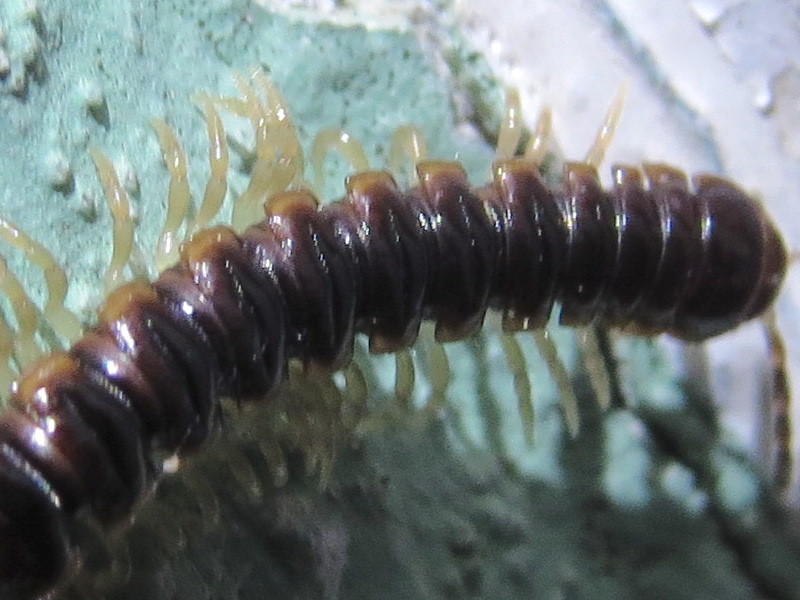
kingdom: Animalia
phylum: Arthropoda
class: Diplopoda
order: Polydesmida
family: Paradoxosomatidae
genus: Oxidus
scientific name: Oxidus gracilis
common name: Greenhouse millipede
